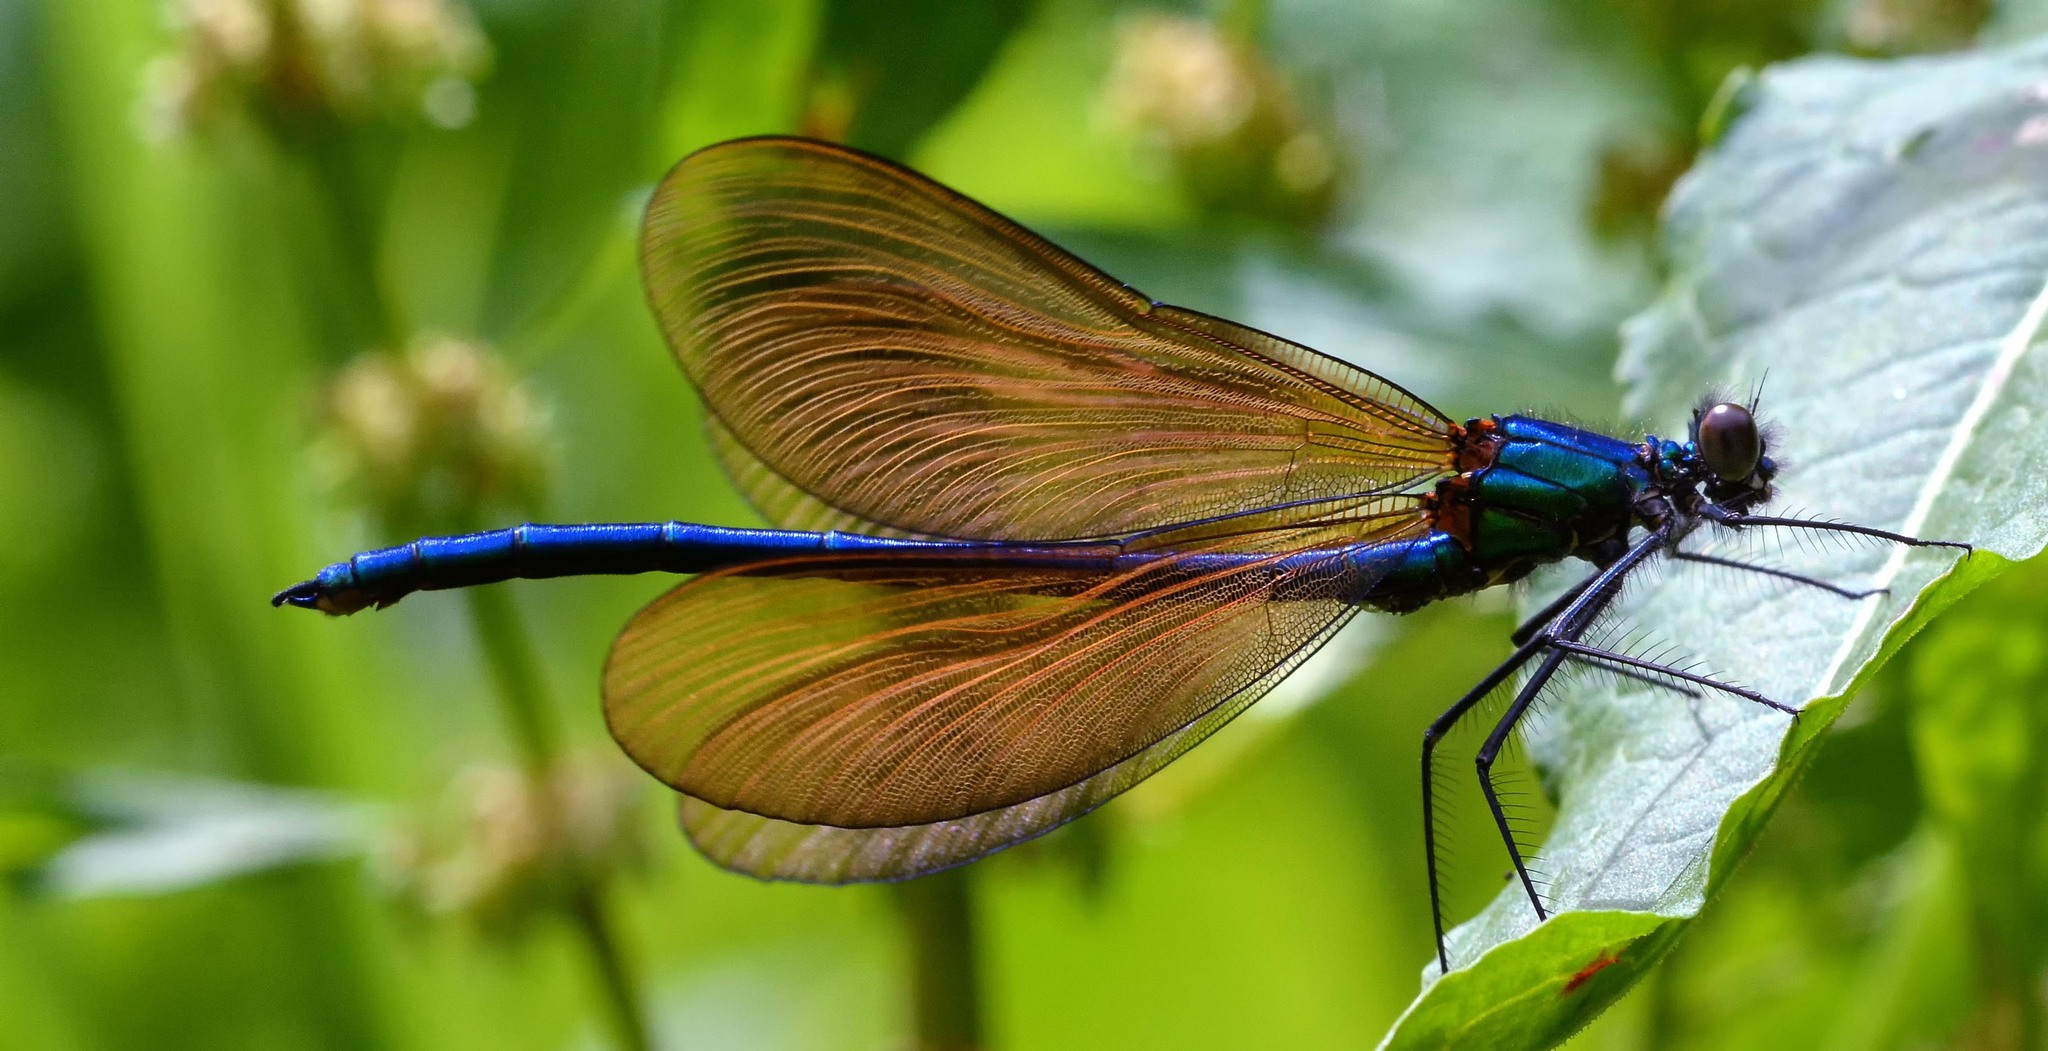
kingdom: Animalia
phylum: Arthropoda
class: Insecta
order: Odonata
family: Calopterygidae
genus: Calopteryx
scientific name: Calopteryx virgo
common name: Beautiful demoiselle
